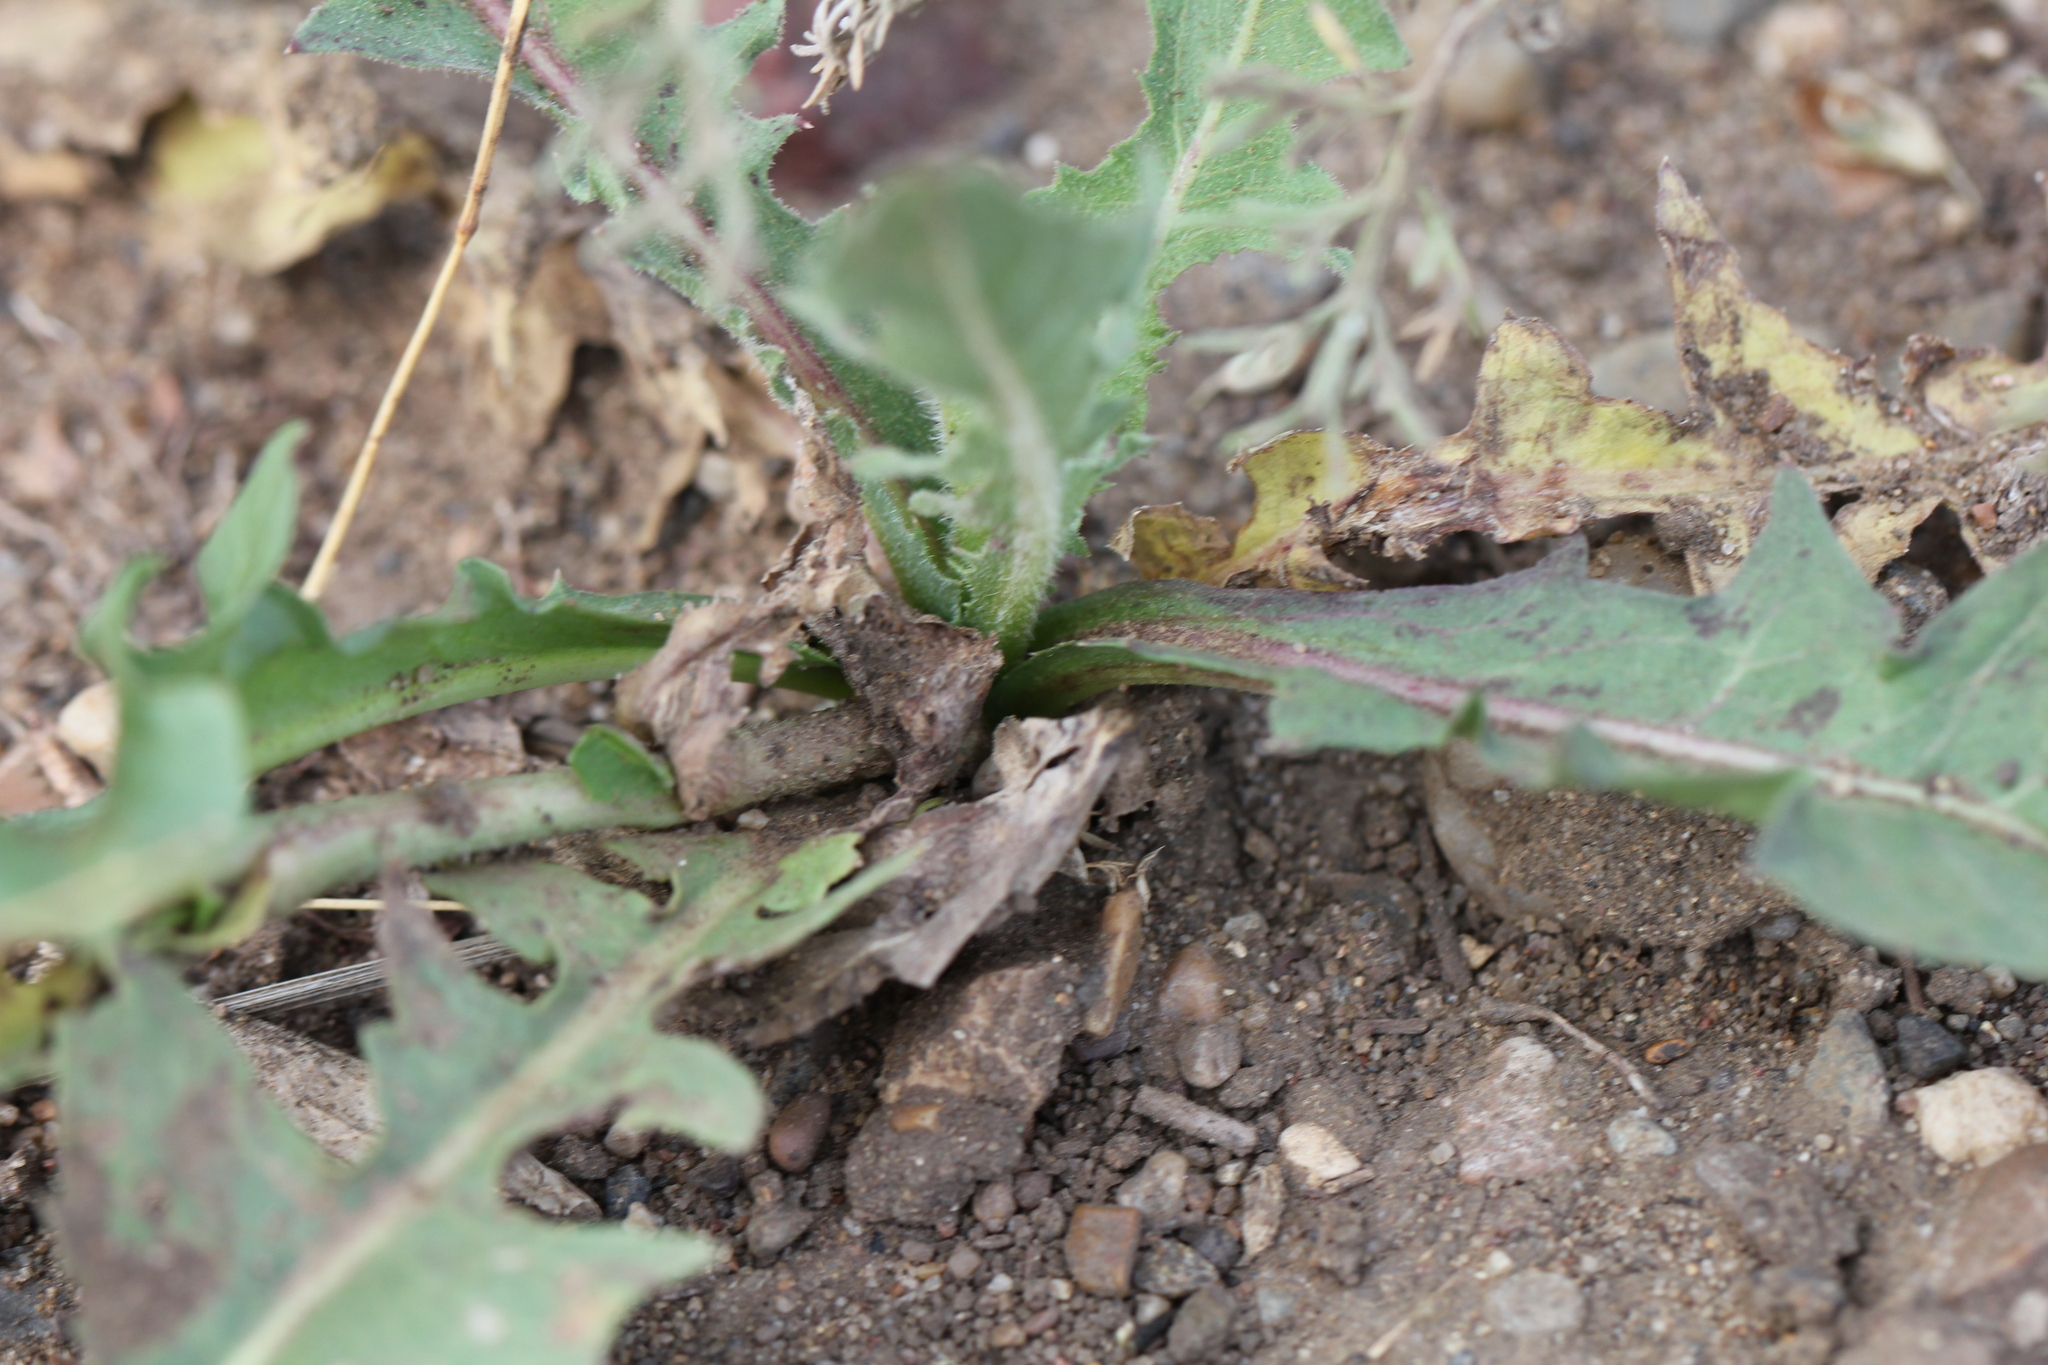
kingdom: Plantae
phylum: Tracheophyta
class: Magnoliopsida
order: Asterales
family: Asteraceae
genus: Cichorium
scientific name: Cichorium intybus
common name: Chicory
